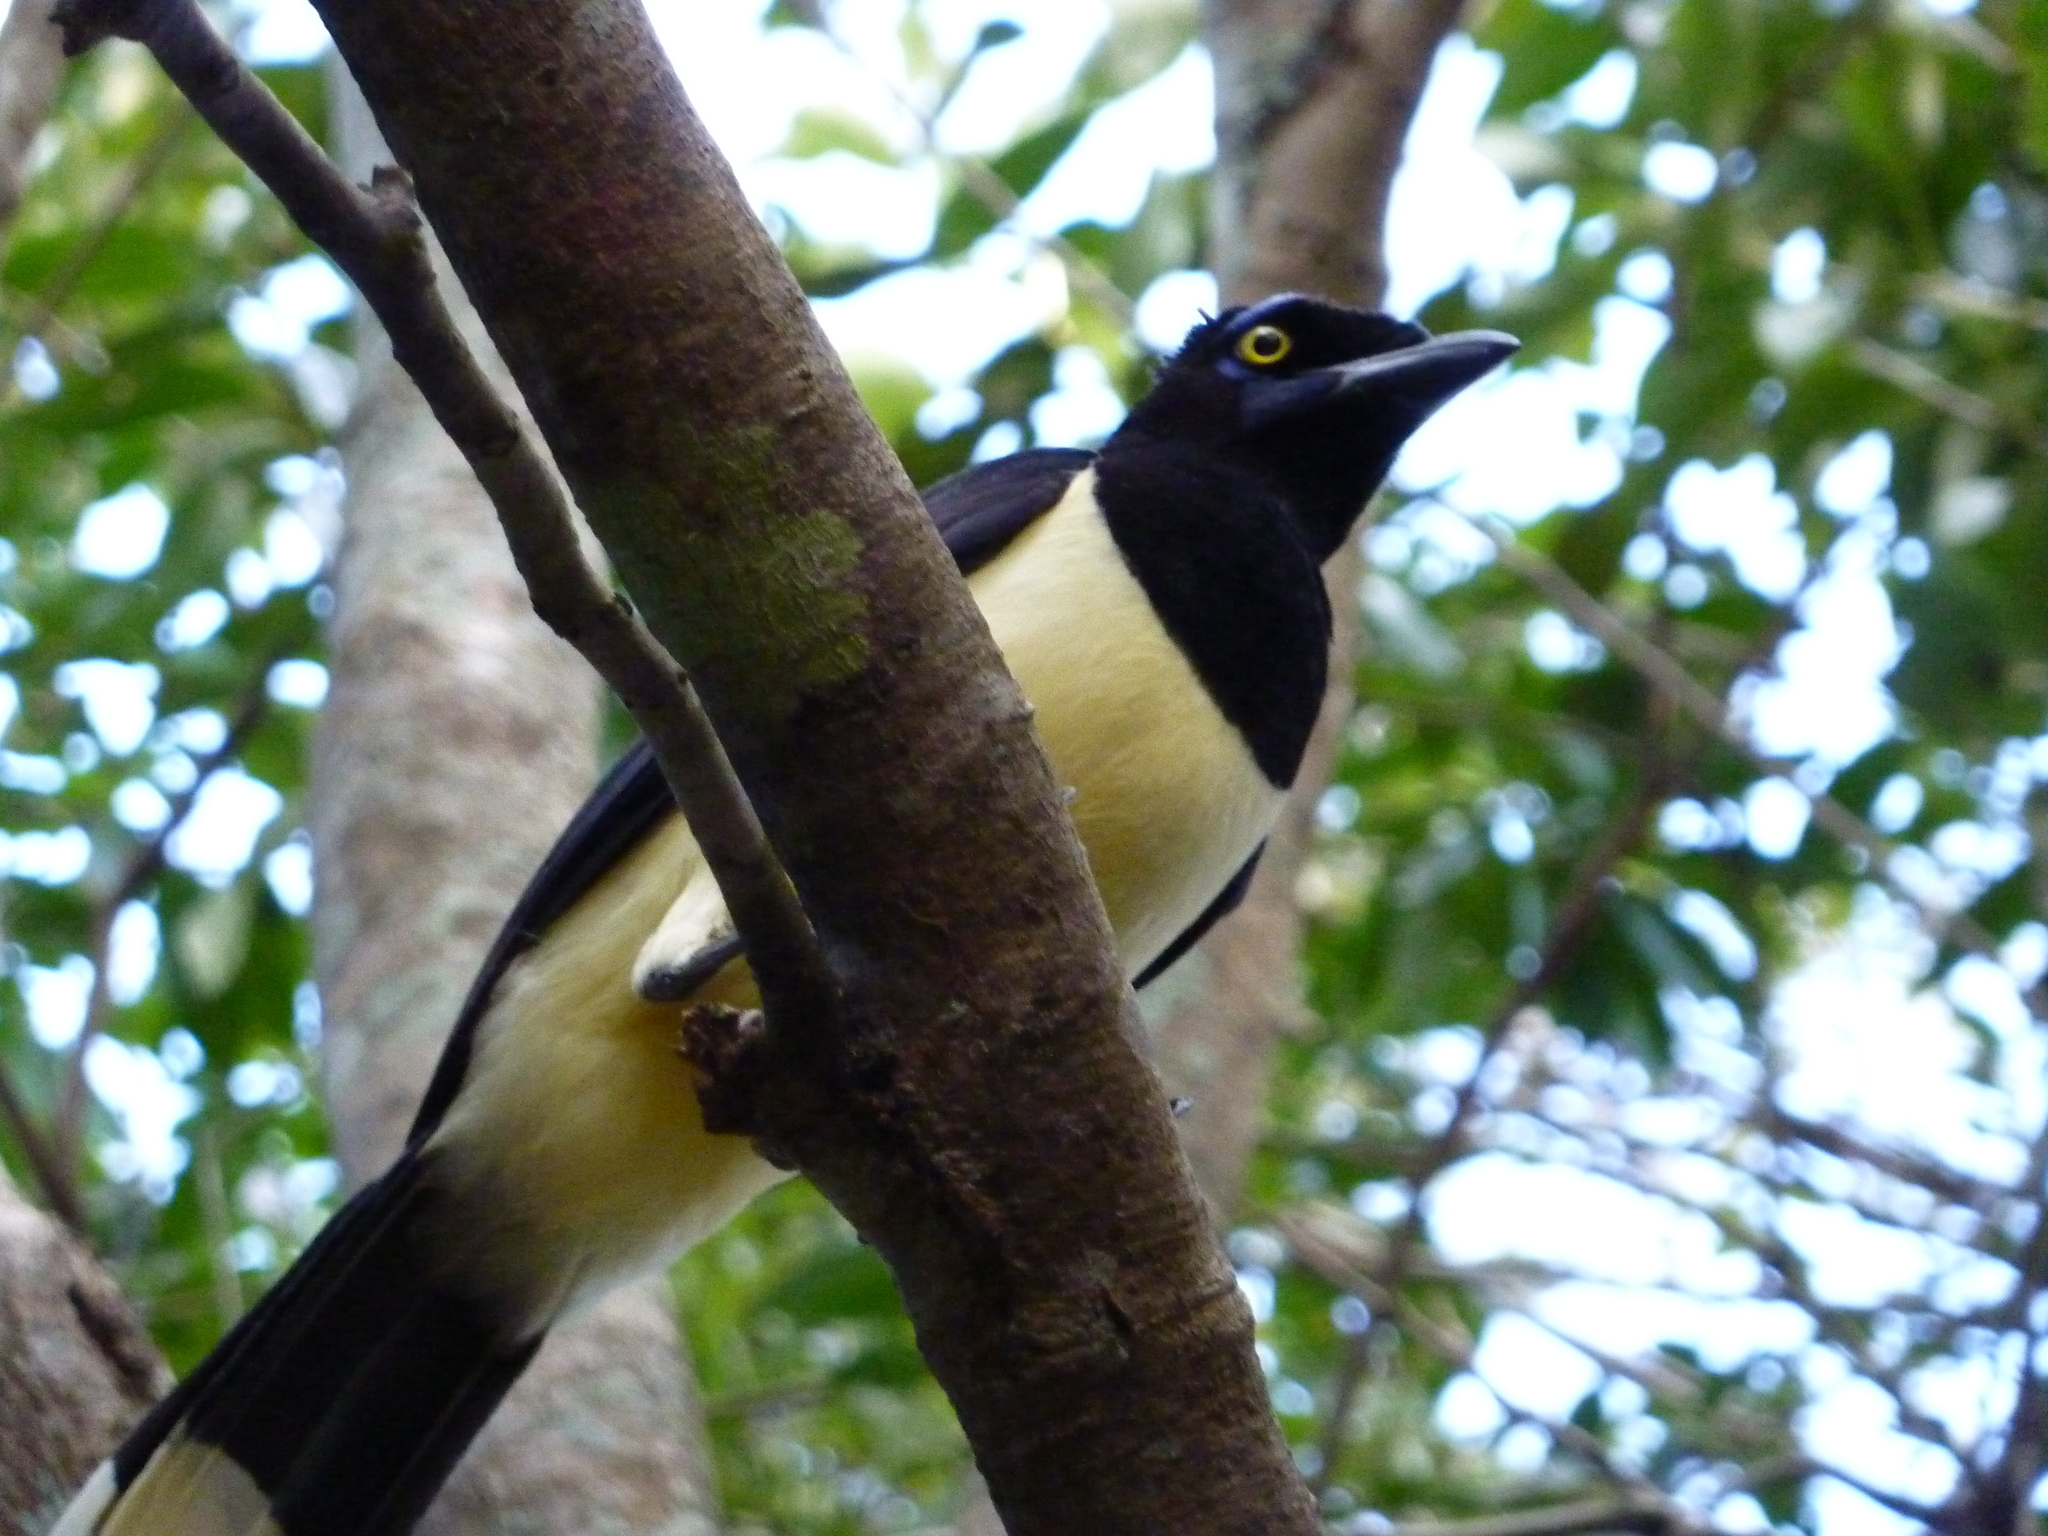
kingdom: Animalia
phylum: Chordata
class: Aves
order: Passeriformes
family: Corvidae
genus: Cyanocorax
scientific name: Cyanocorax chrysops
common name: Plush-crested jay
